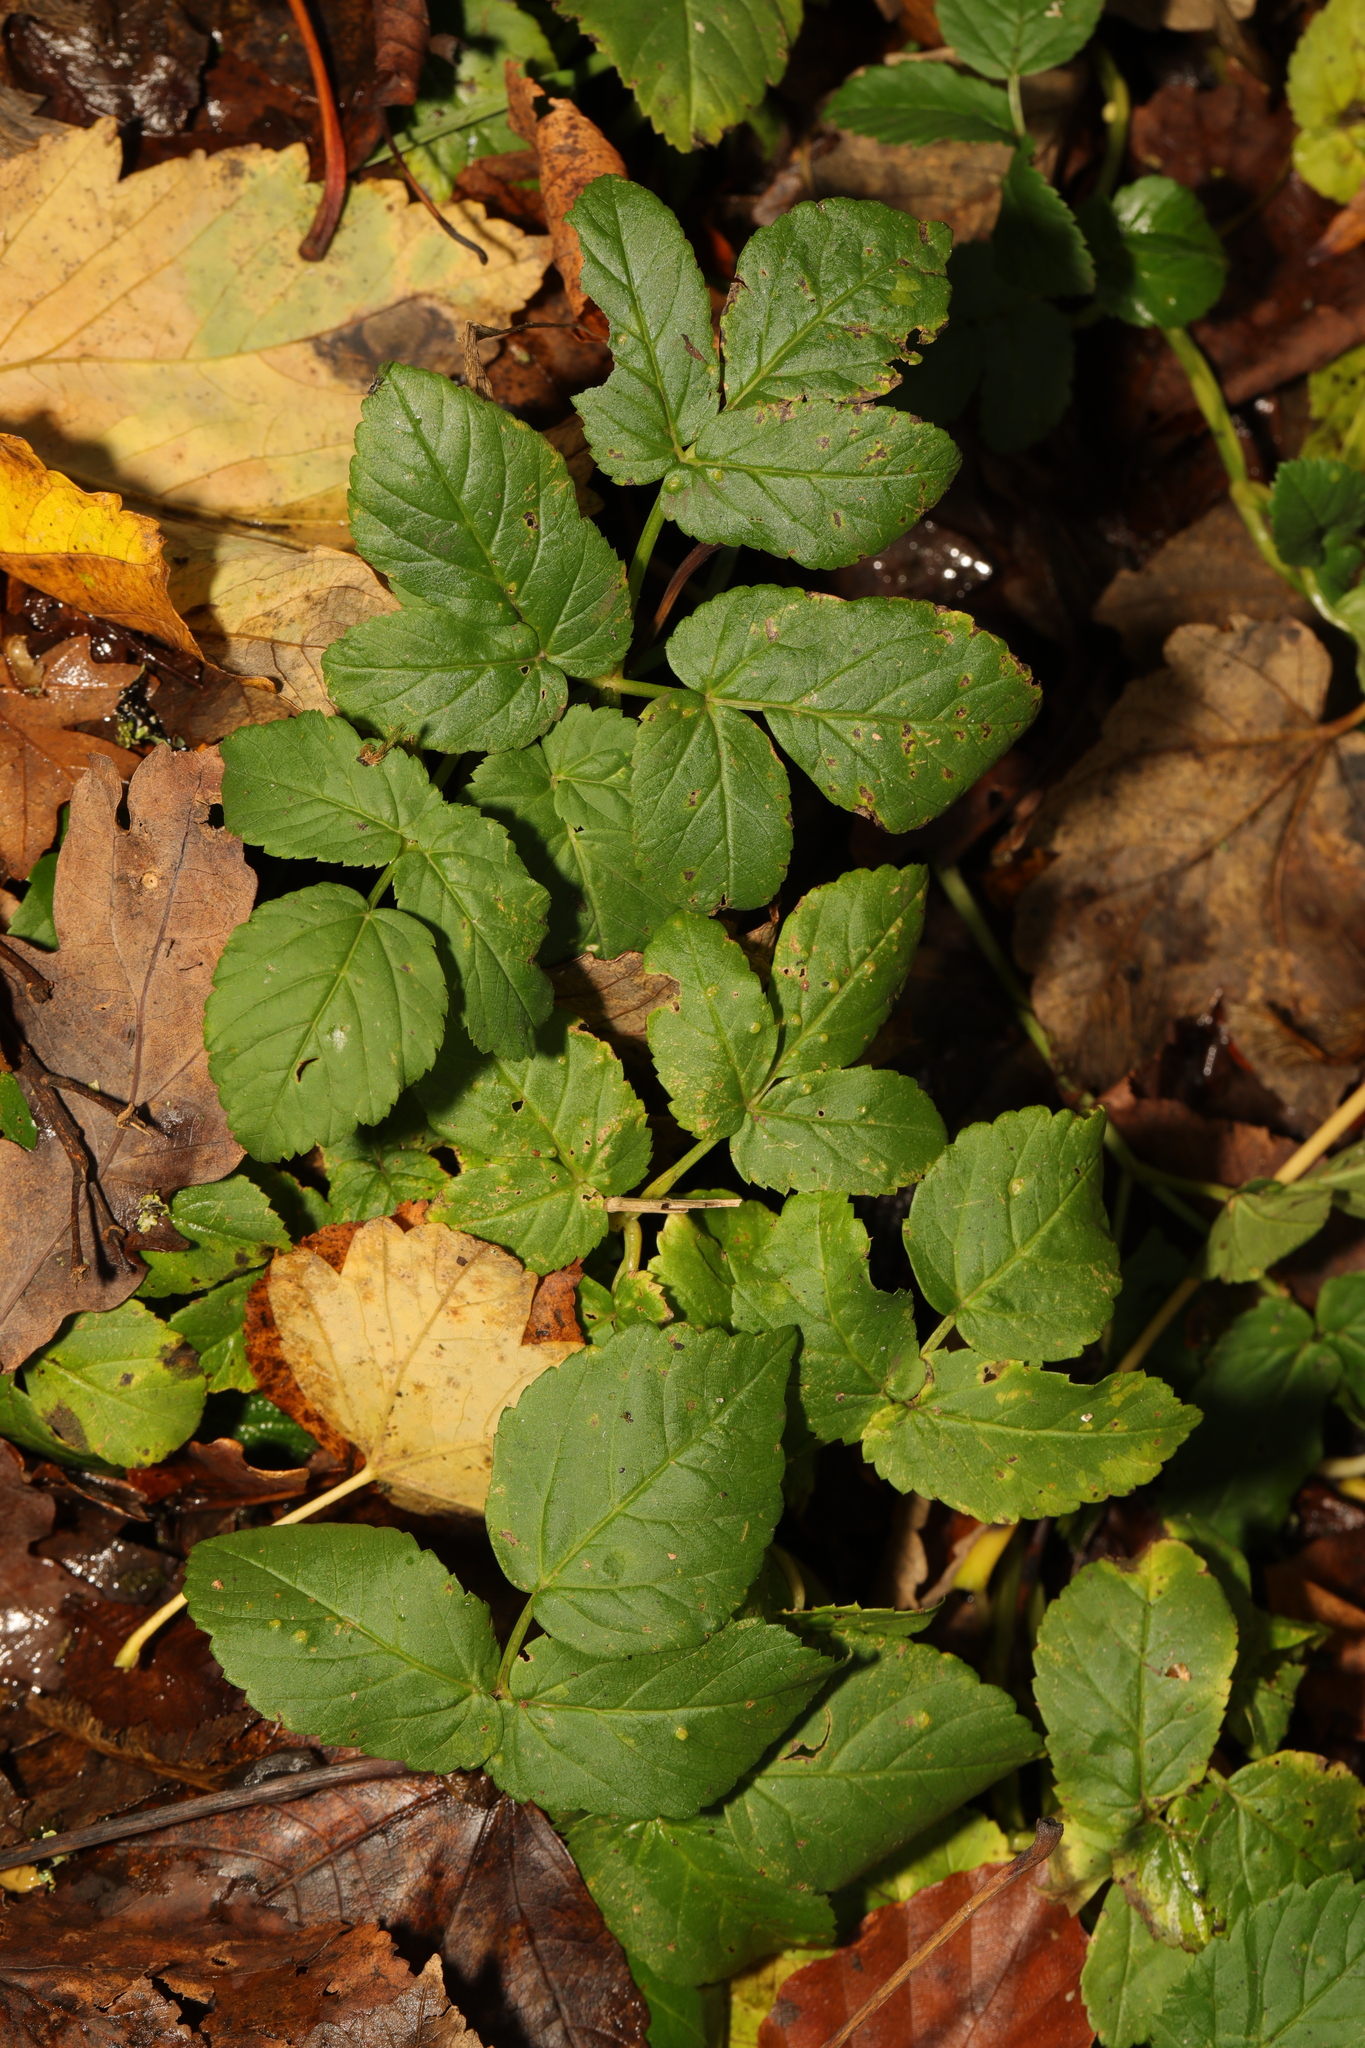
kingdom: Plantae
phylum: Tracheophyta
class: Magnoliopsida
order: Apiales
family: Apiaceae
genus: Aegopodium
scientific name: Aegopodium podagraria
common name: Ground-elder
